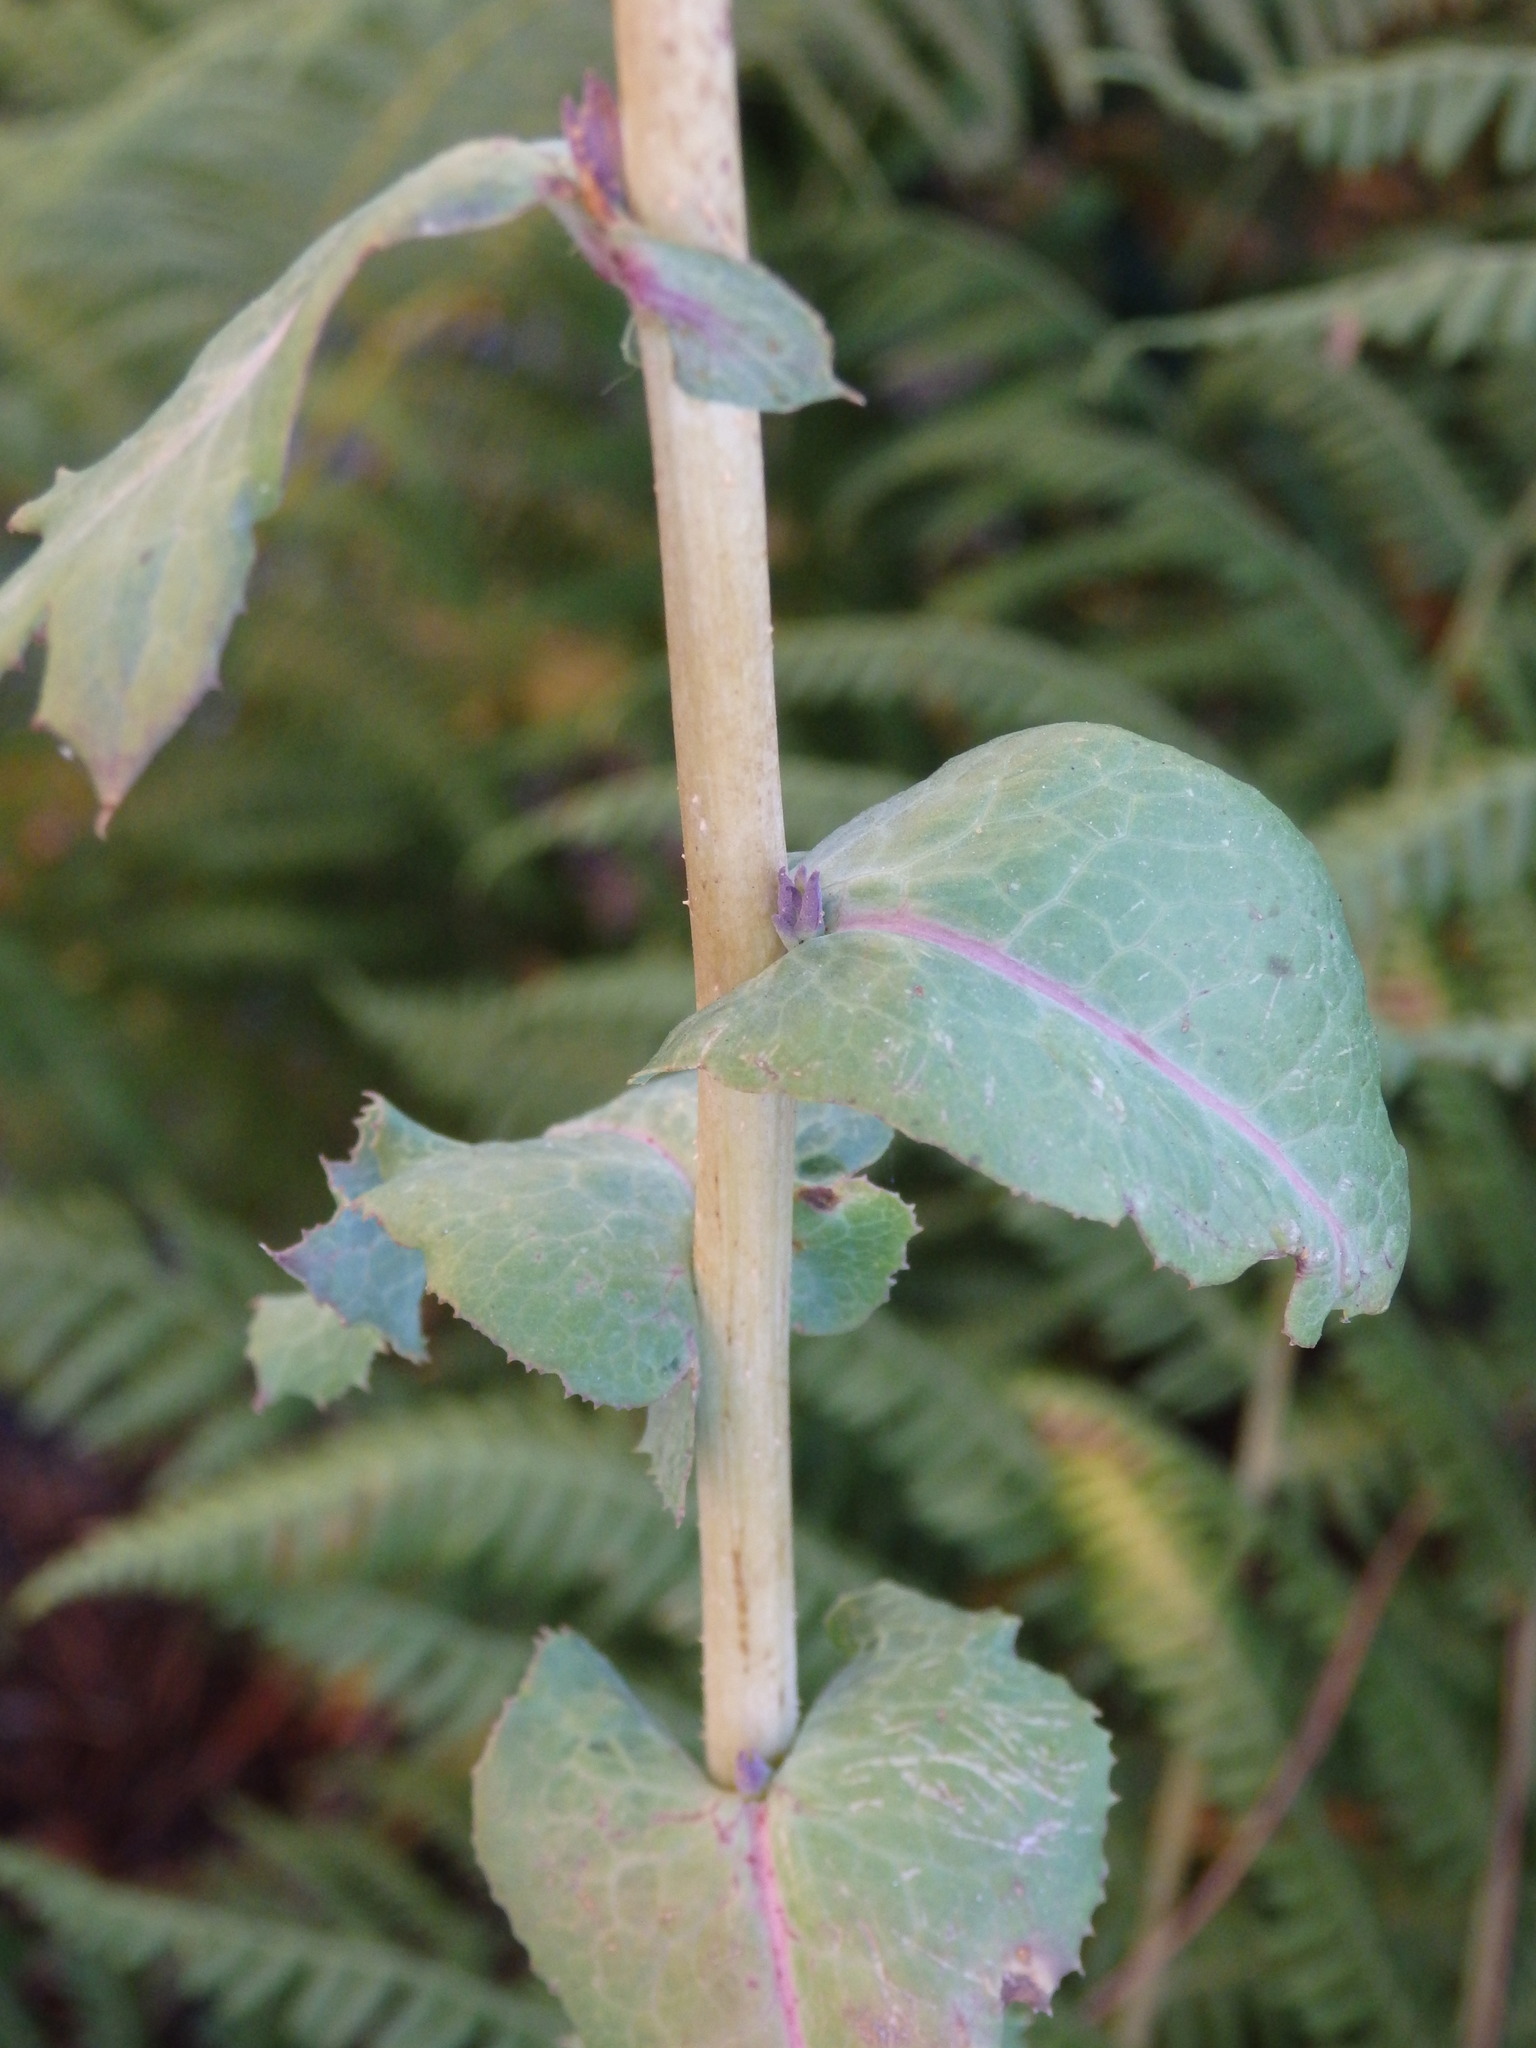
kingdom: Plantae
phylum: Tracheophyta
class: Magnoliopsida
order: Asterales
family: Asteraceae
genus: Lactuca
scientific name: Lactuca serriola
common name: Prickly lettuce
